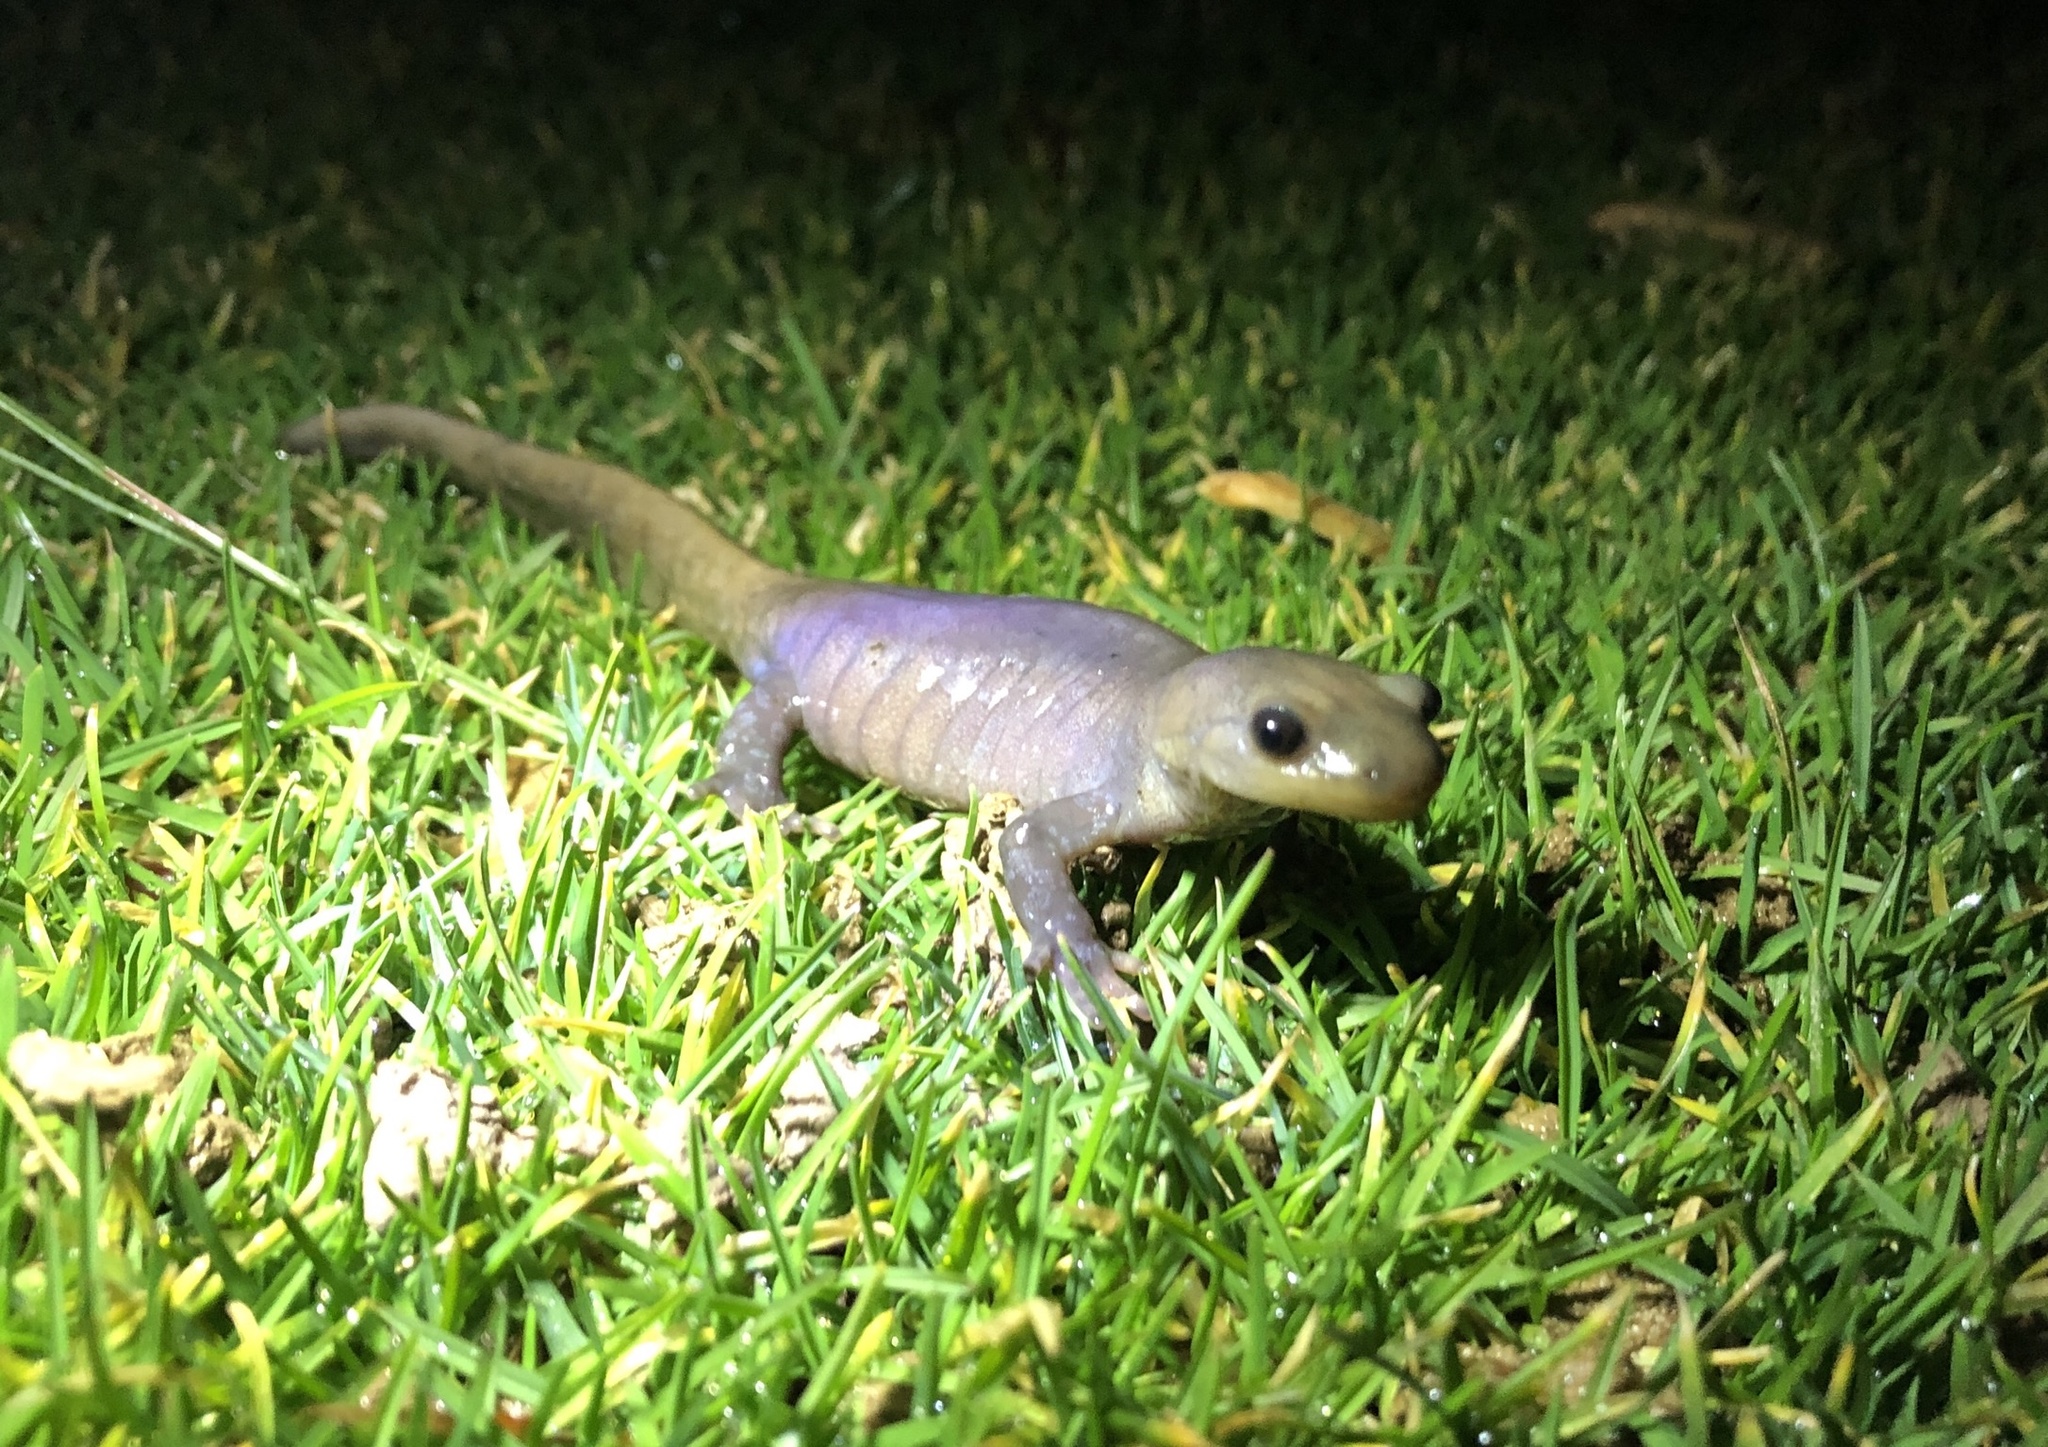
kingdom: Animalia
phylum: Chordata
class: Amphibia
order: Caudata
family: Ambystomatidae
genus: Ambystoma
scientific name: Ambystoma jeffersonianum
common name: Jefferson salamander
